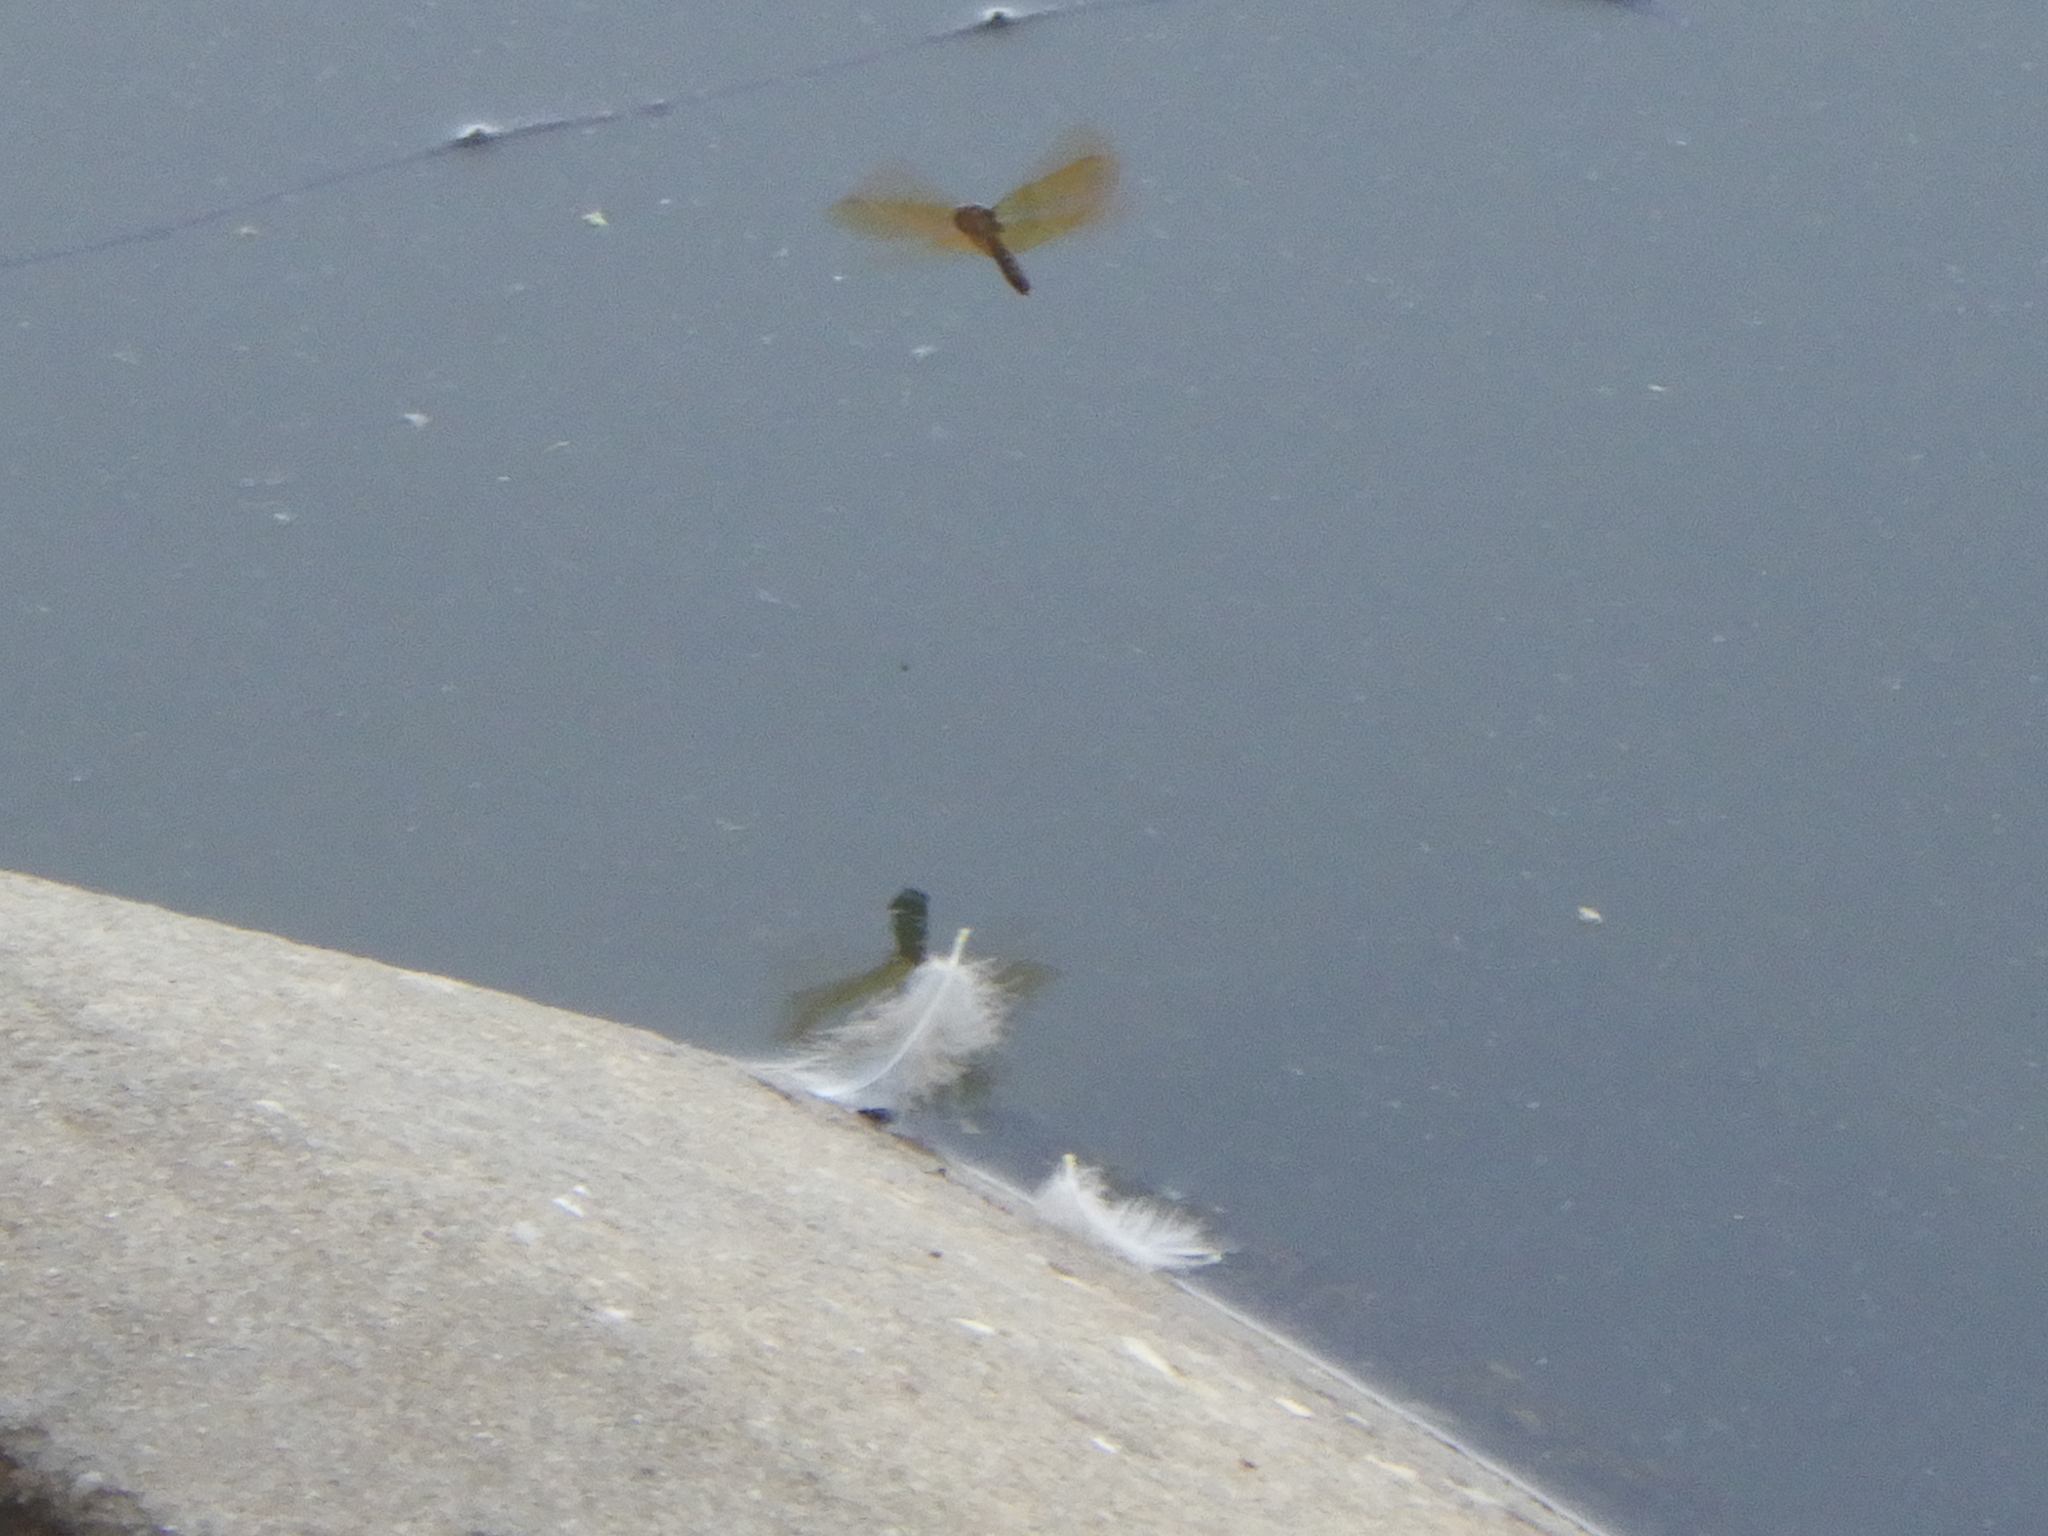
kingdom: Animalia
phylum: Arthropoda
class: Insecta
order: Odonata
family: Libellulidae
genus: Perithemis
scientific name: Perithemis tenera
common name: Eastern amberwing
